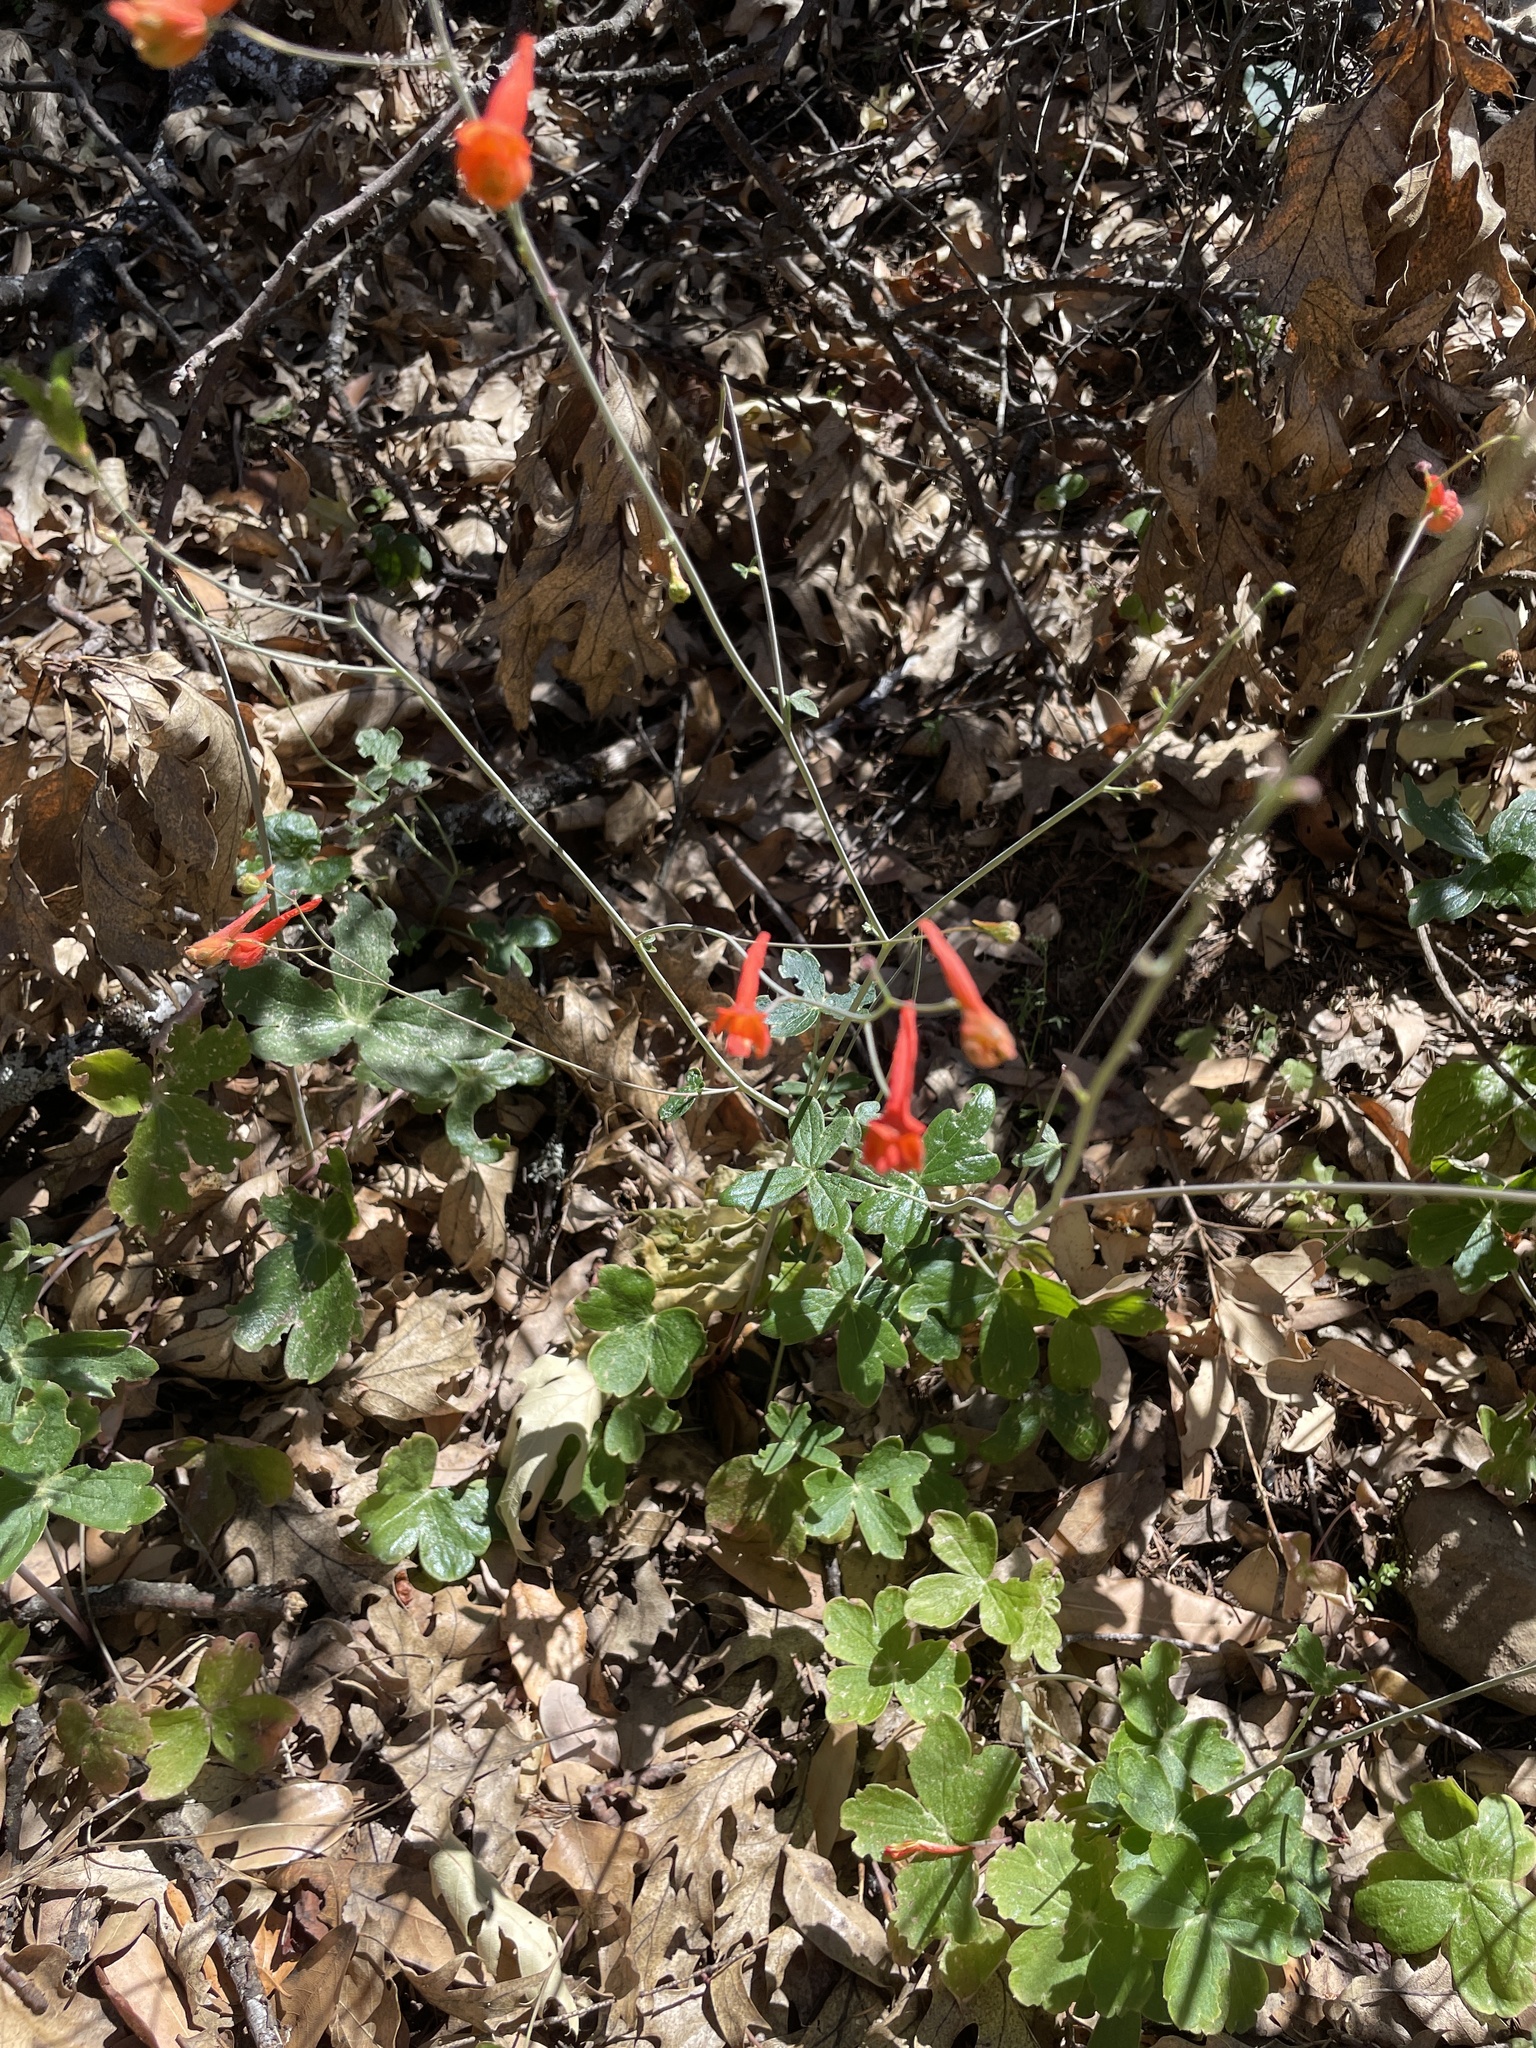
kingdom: Plantae
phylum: Tracheophyta
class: Magnoliopsida
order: Ranunculales
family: Ranunculaceae
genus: Delphinium
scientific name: Delphinium nudicaule
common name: Red larkspur
